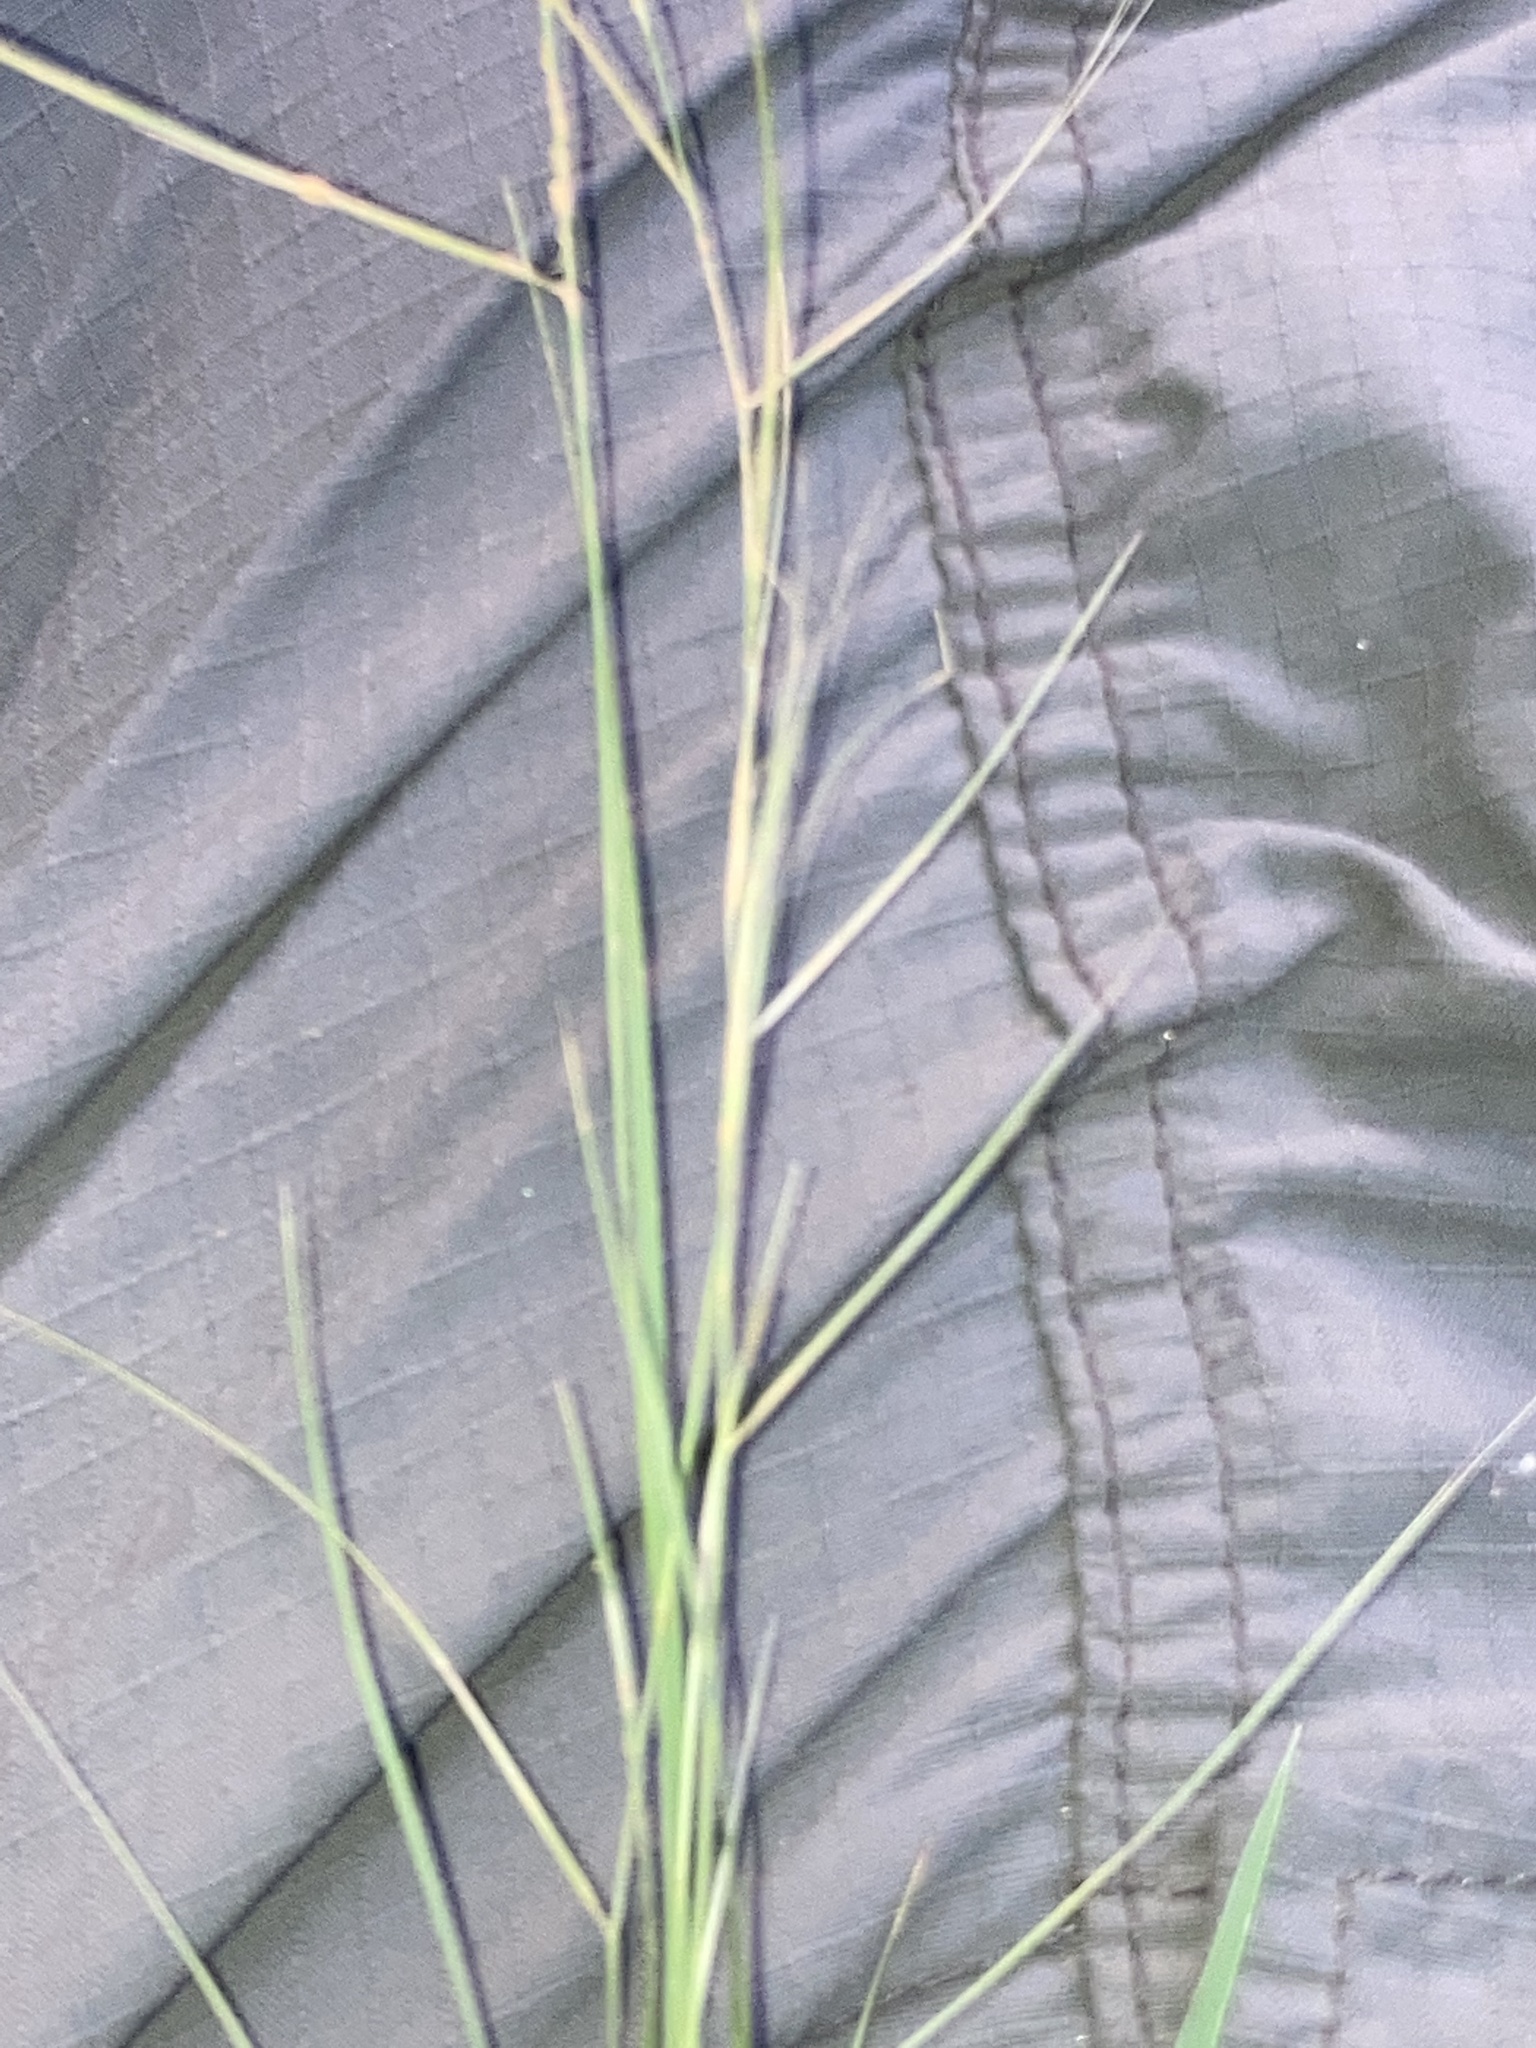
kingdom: Plantae
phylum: Tracheophyta
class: Liliopsida
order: Poales
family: Poaceae
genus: Coleataenia
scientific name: Coleataenia anceps
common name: Beaked panic grass
